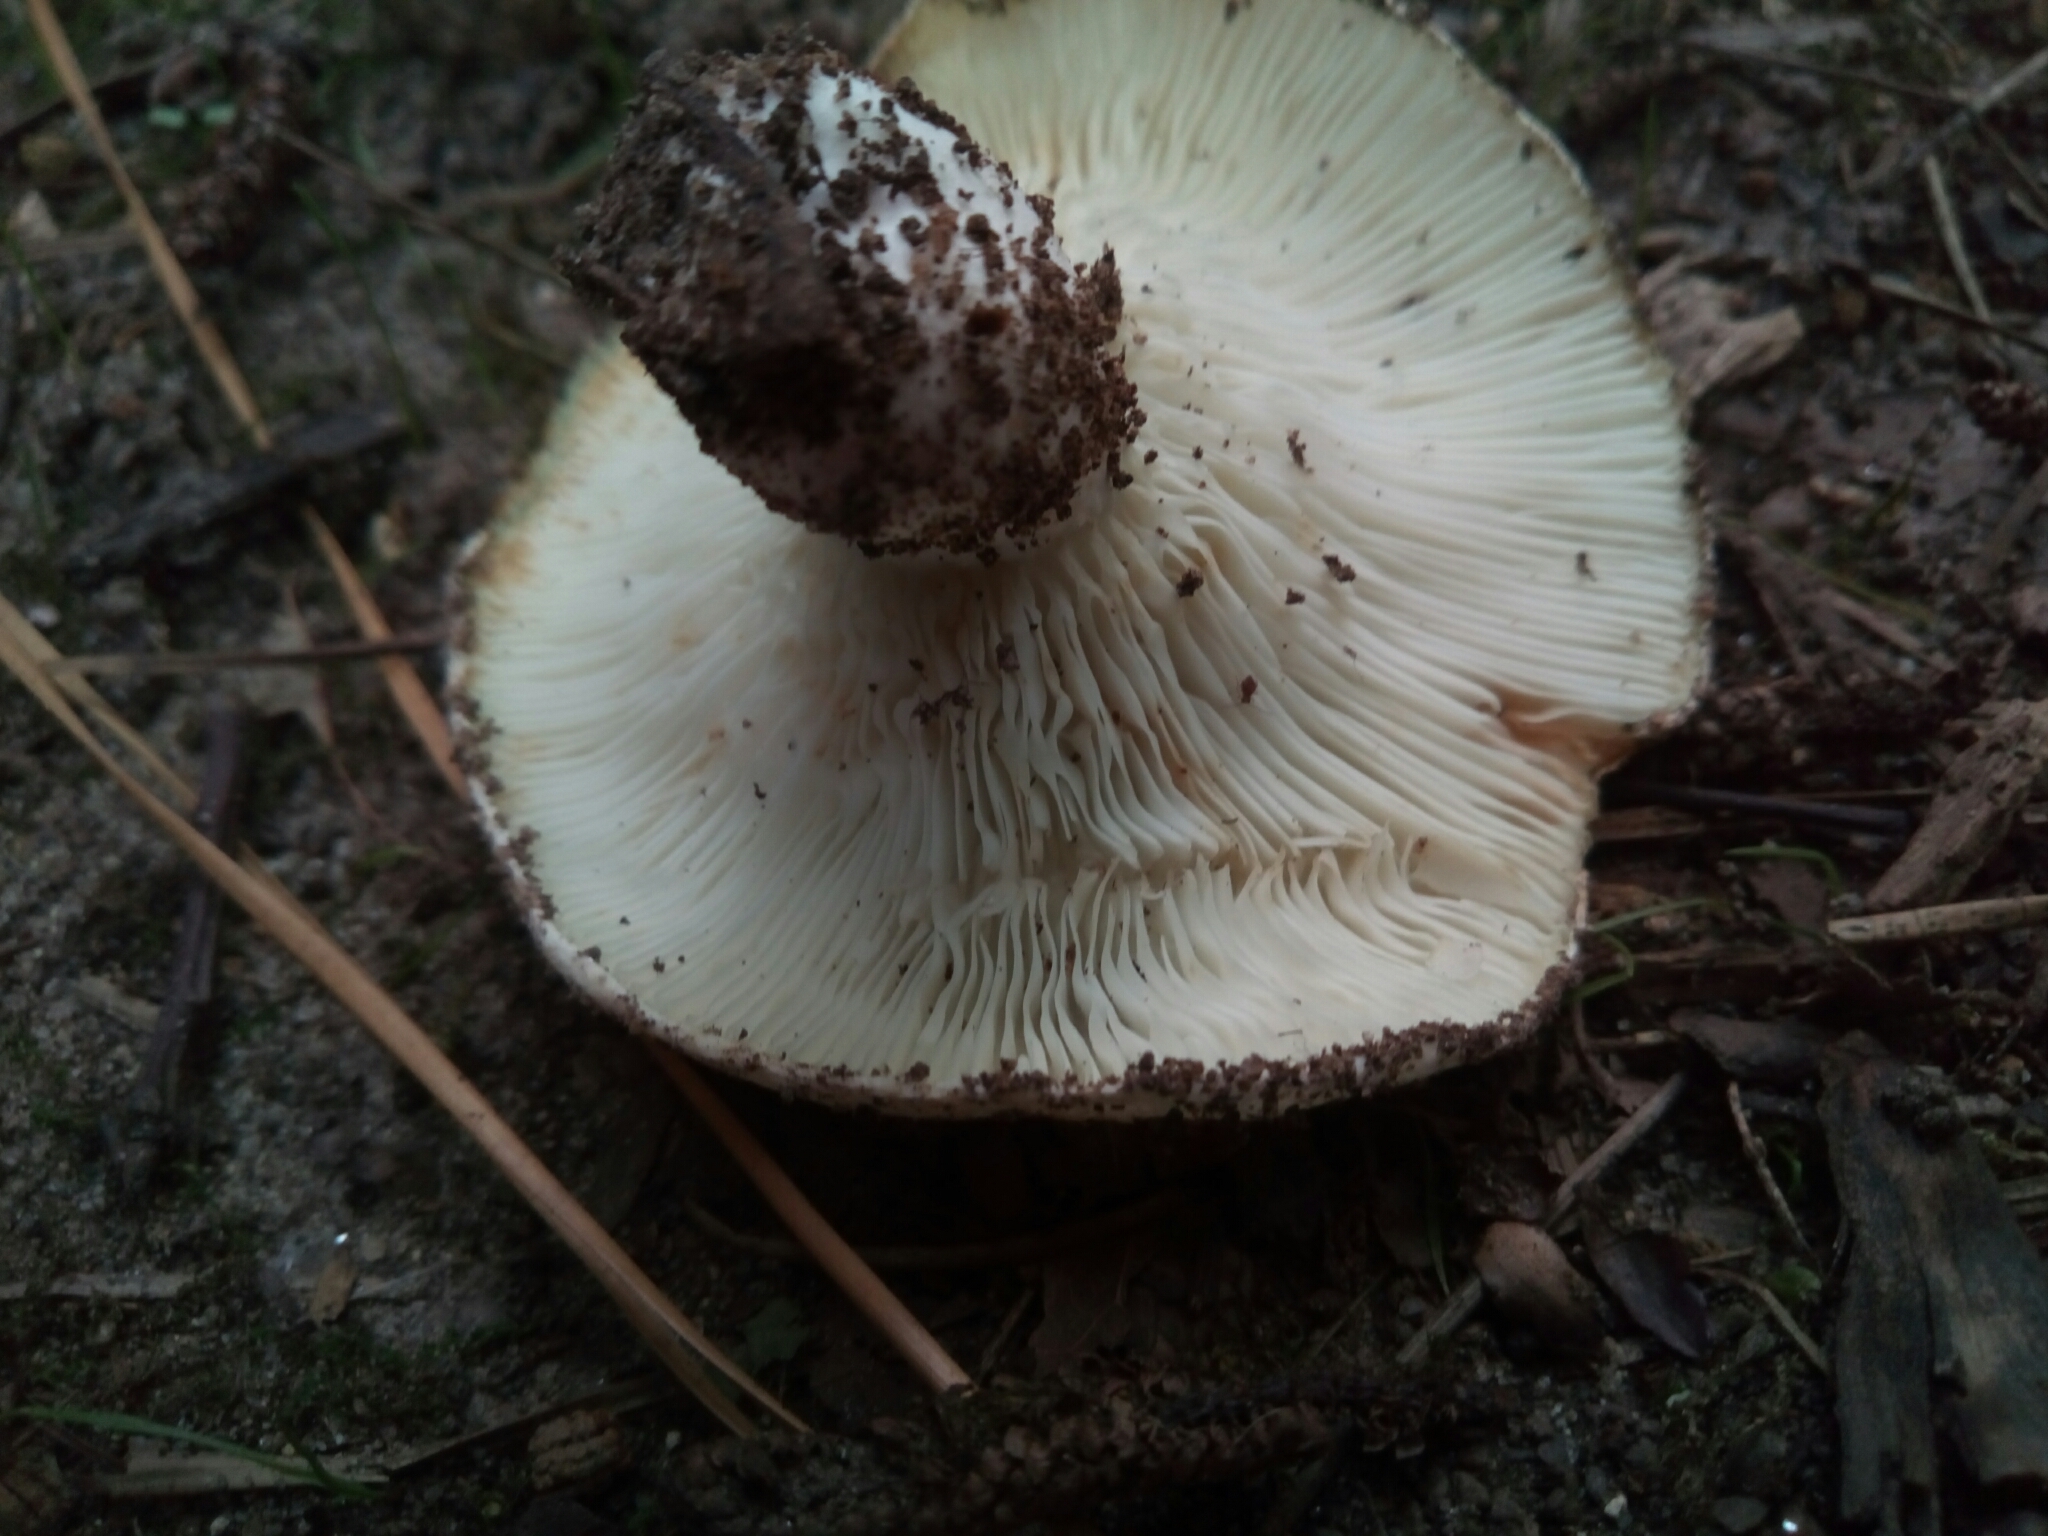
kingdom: Fungi
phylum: Basidiomycota
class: Agaricomycetes
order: Russulales
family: Russulaceae
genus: Russula
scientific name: Russula brevipes
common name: Short-stemmed russula
